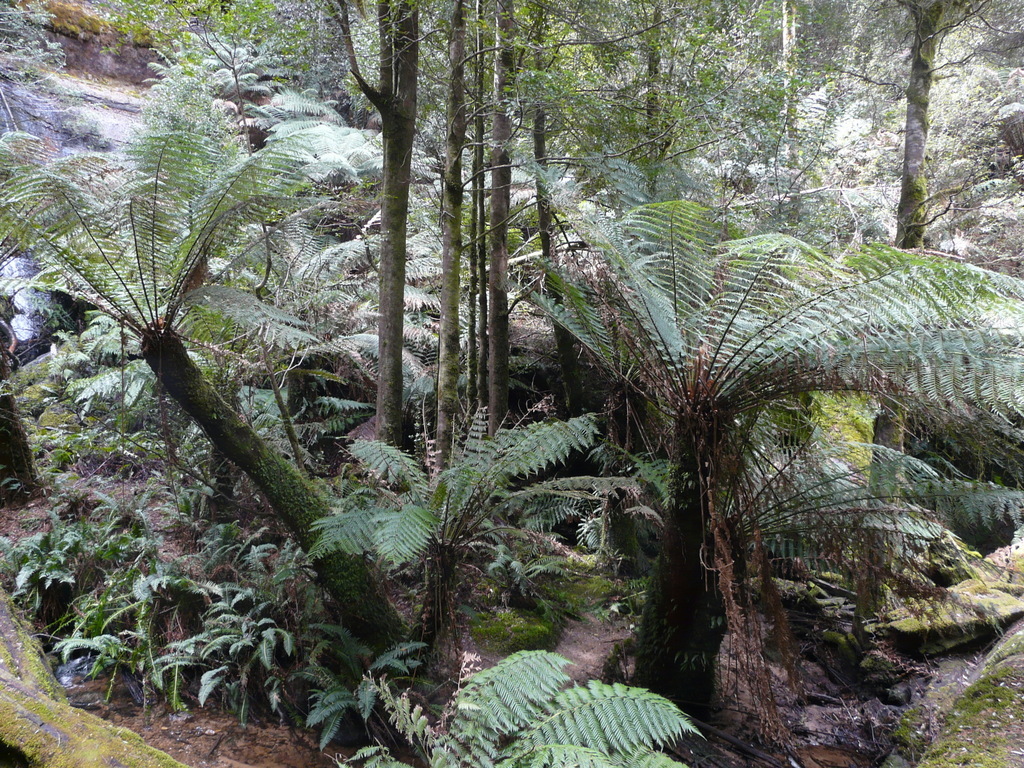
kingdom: Plantae
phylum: Tracheophyta
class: Polypodiopsida
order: Cyatheales
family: Dicksoniaceae
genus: Dicksonia
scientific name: Dicksonia antarctica
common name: Australian treefern
